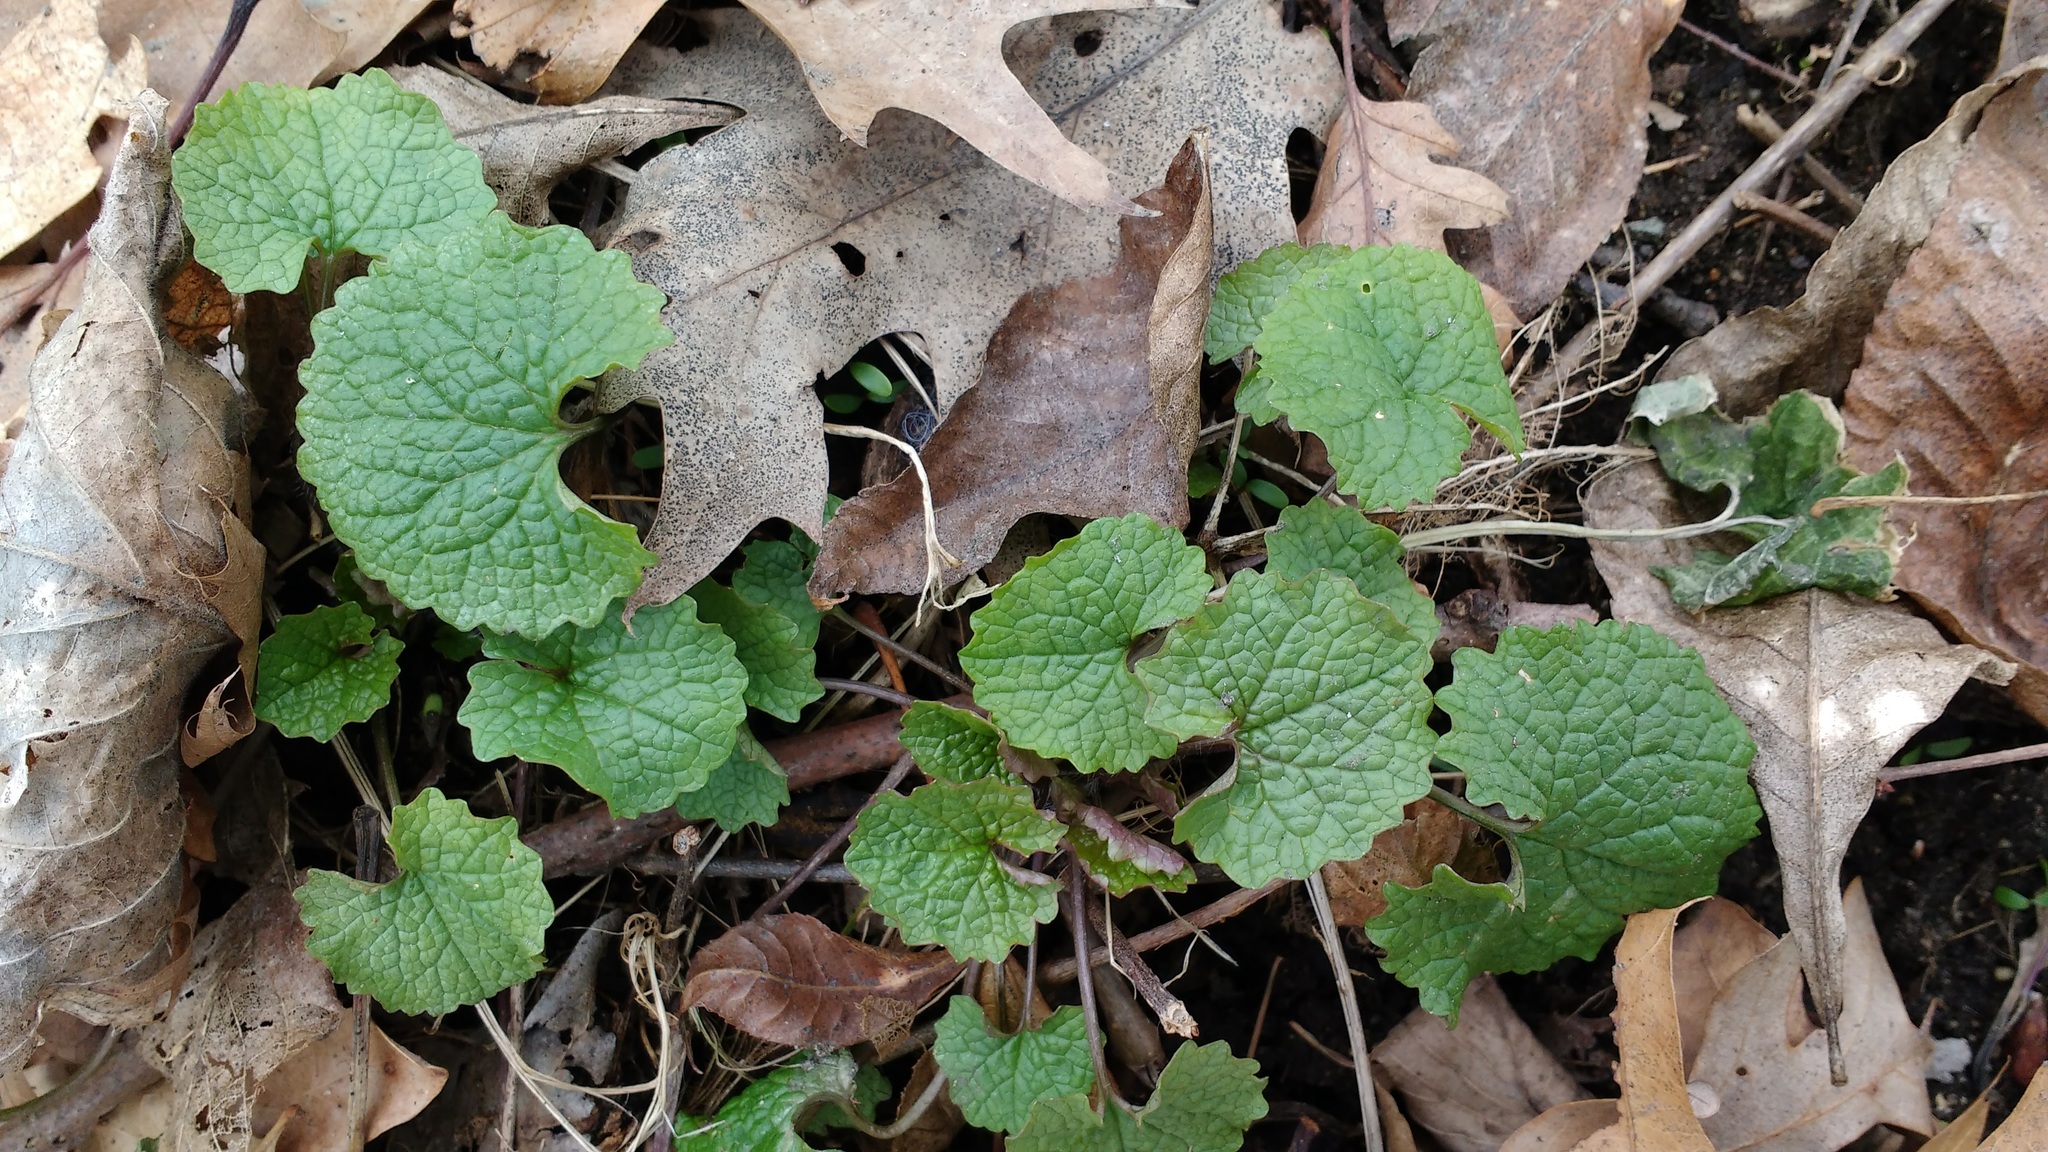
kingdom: Plantae
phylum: Tracheophyta
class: Magnoliopsida
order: Brassicales
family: Brassicaceae
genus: Alliaria
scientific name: Alliaria petiolata
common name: Garlic mustard
